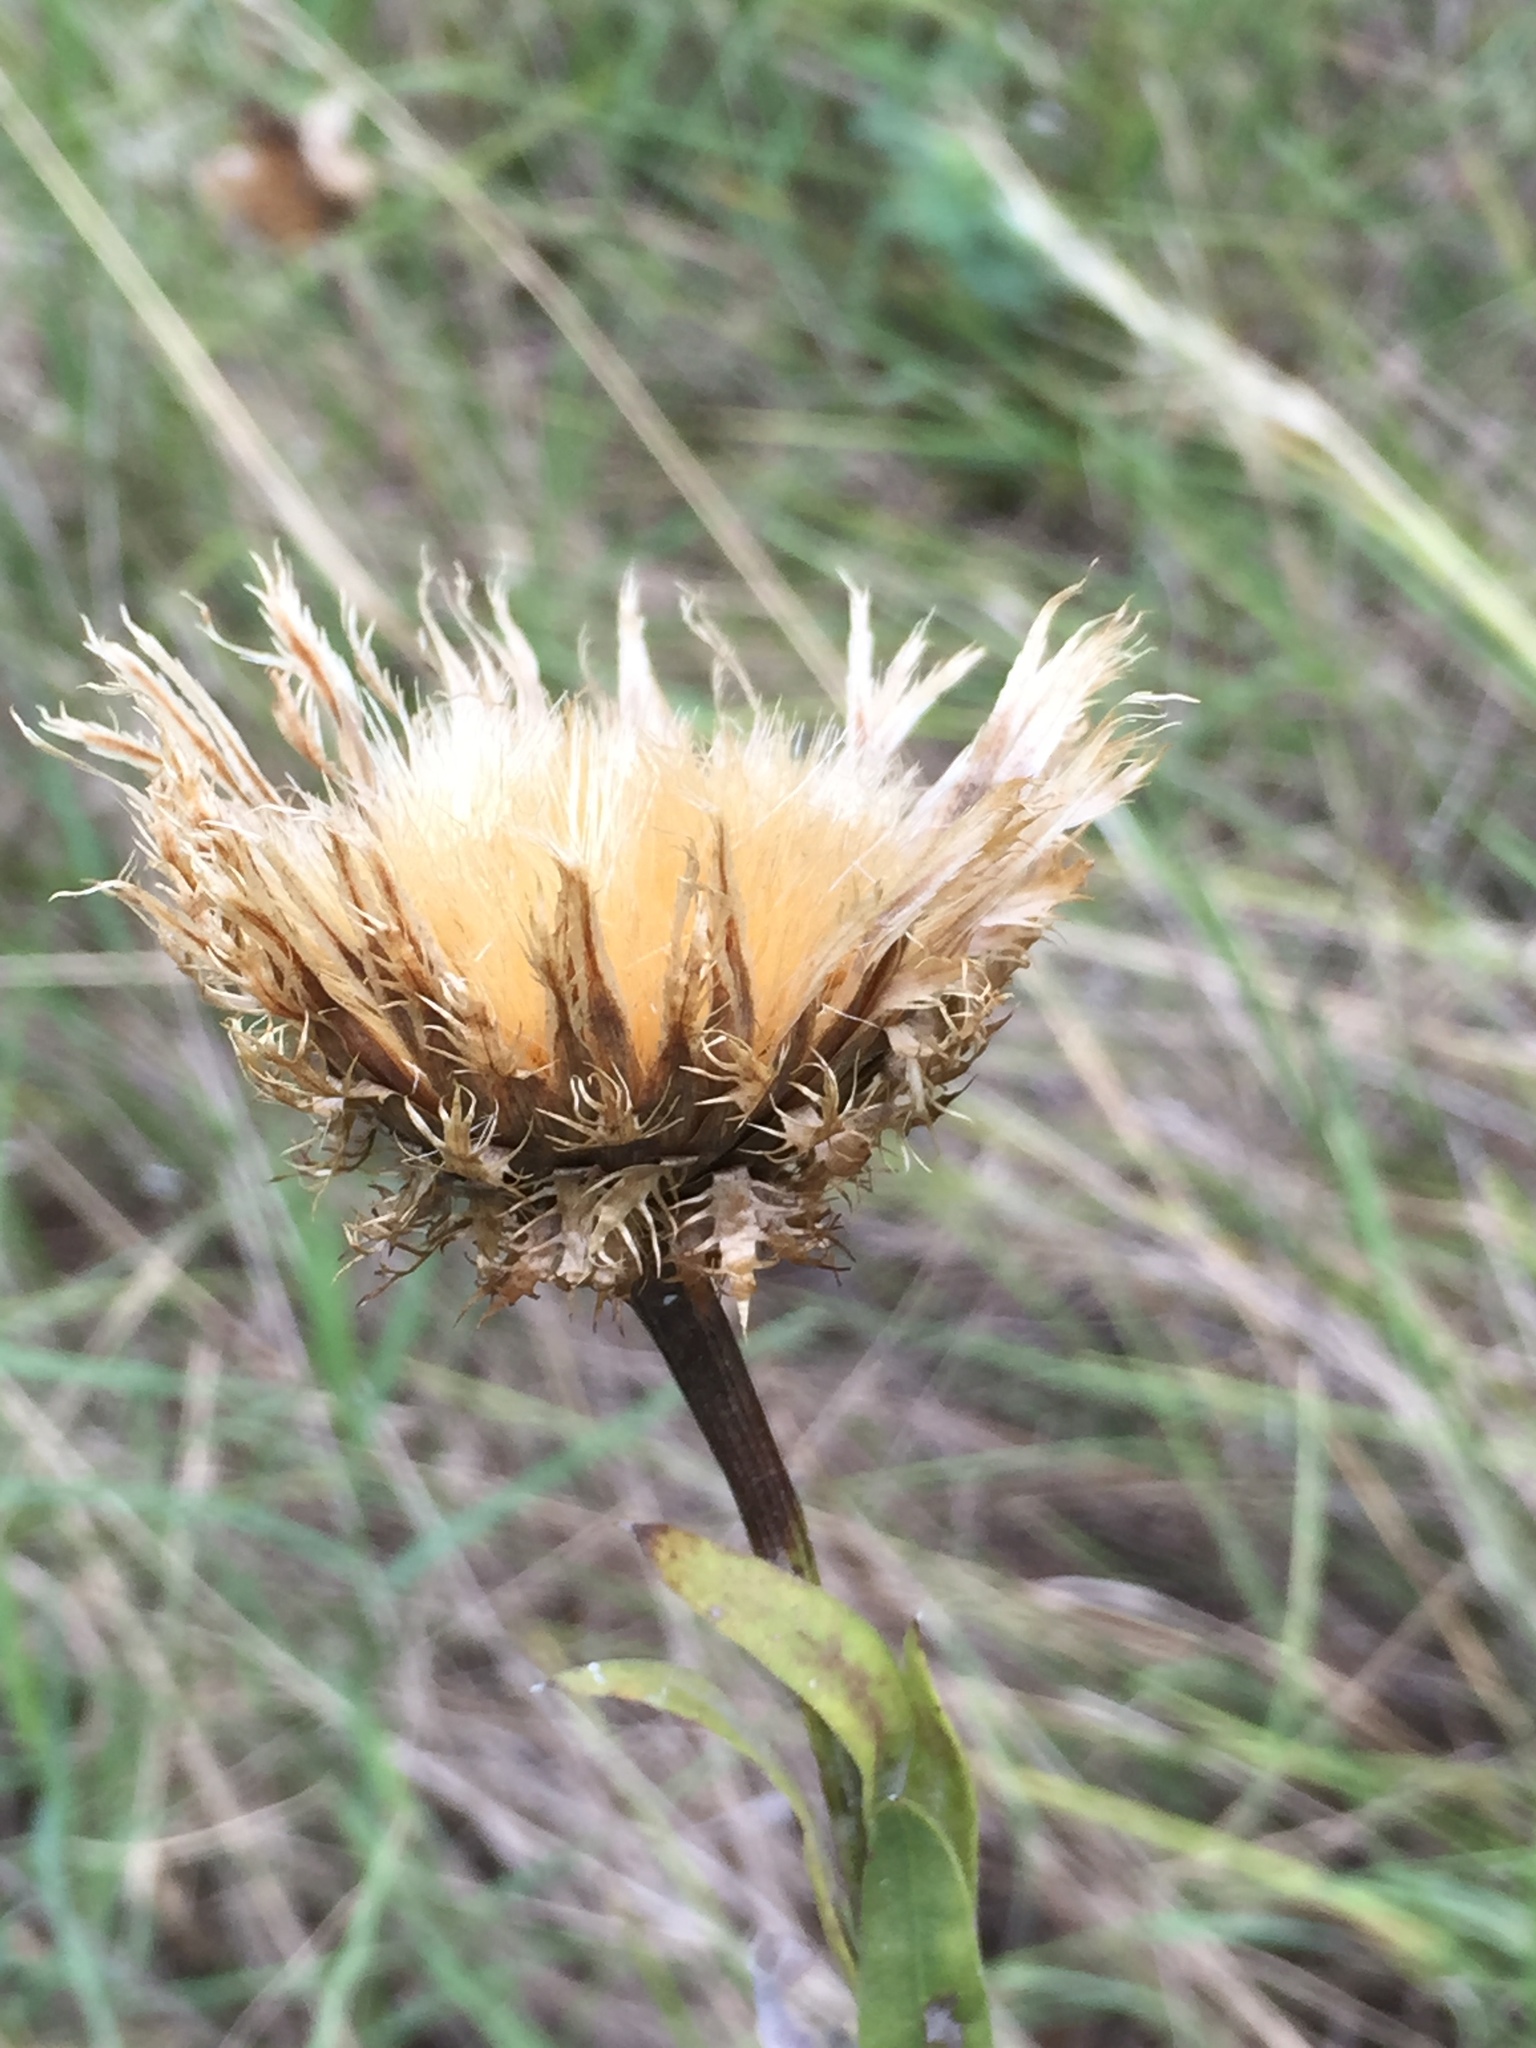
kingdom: Plantae
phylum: Tracheophyta
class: Magnoliopsida
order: Asterales
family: Asteraceae
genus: Plectocephalus
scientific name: Plectocephalus americanus
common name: American basket-flower
